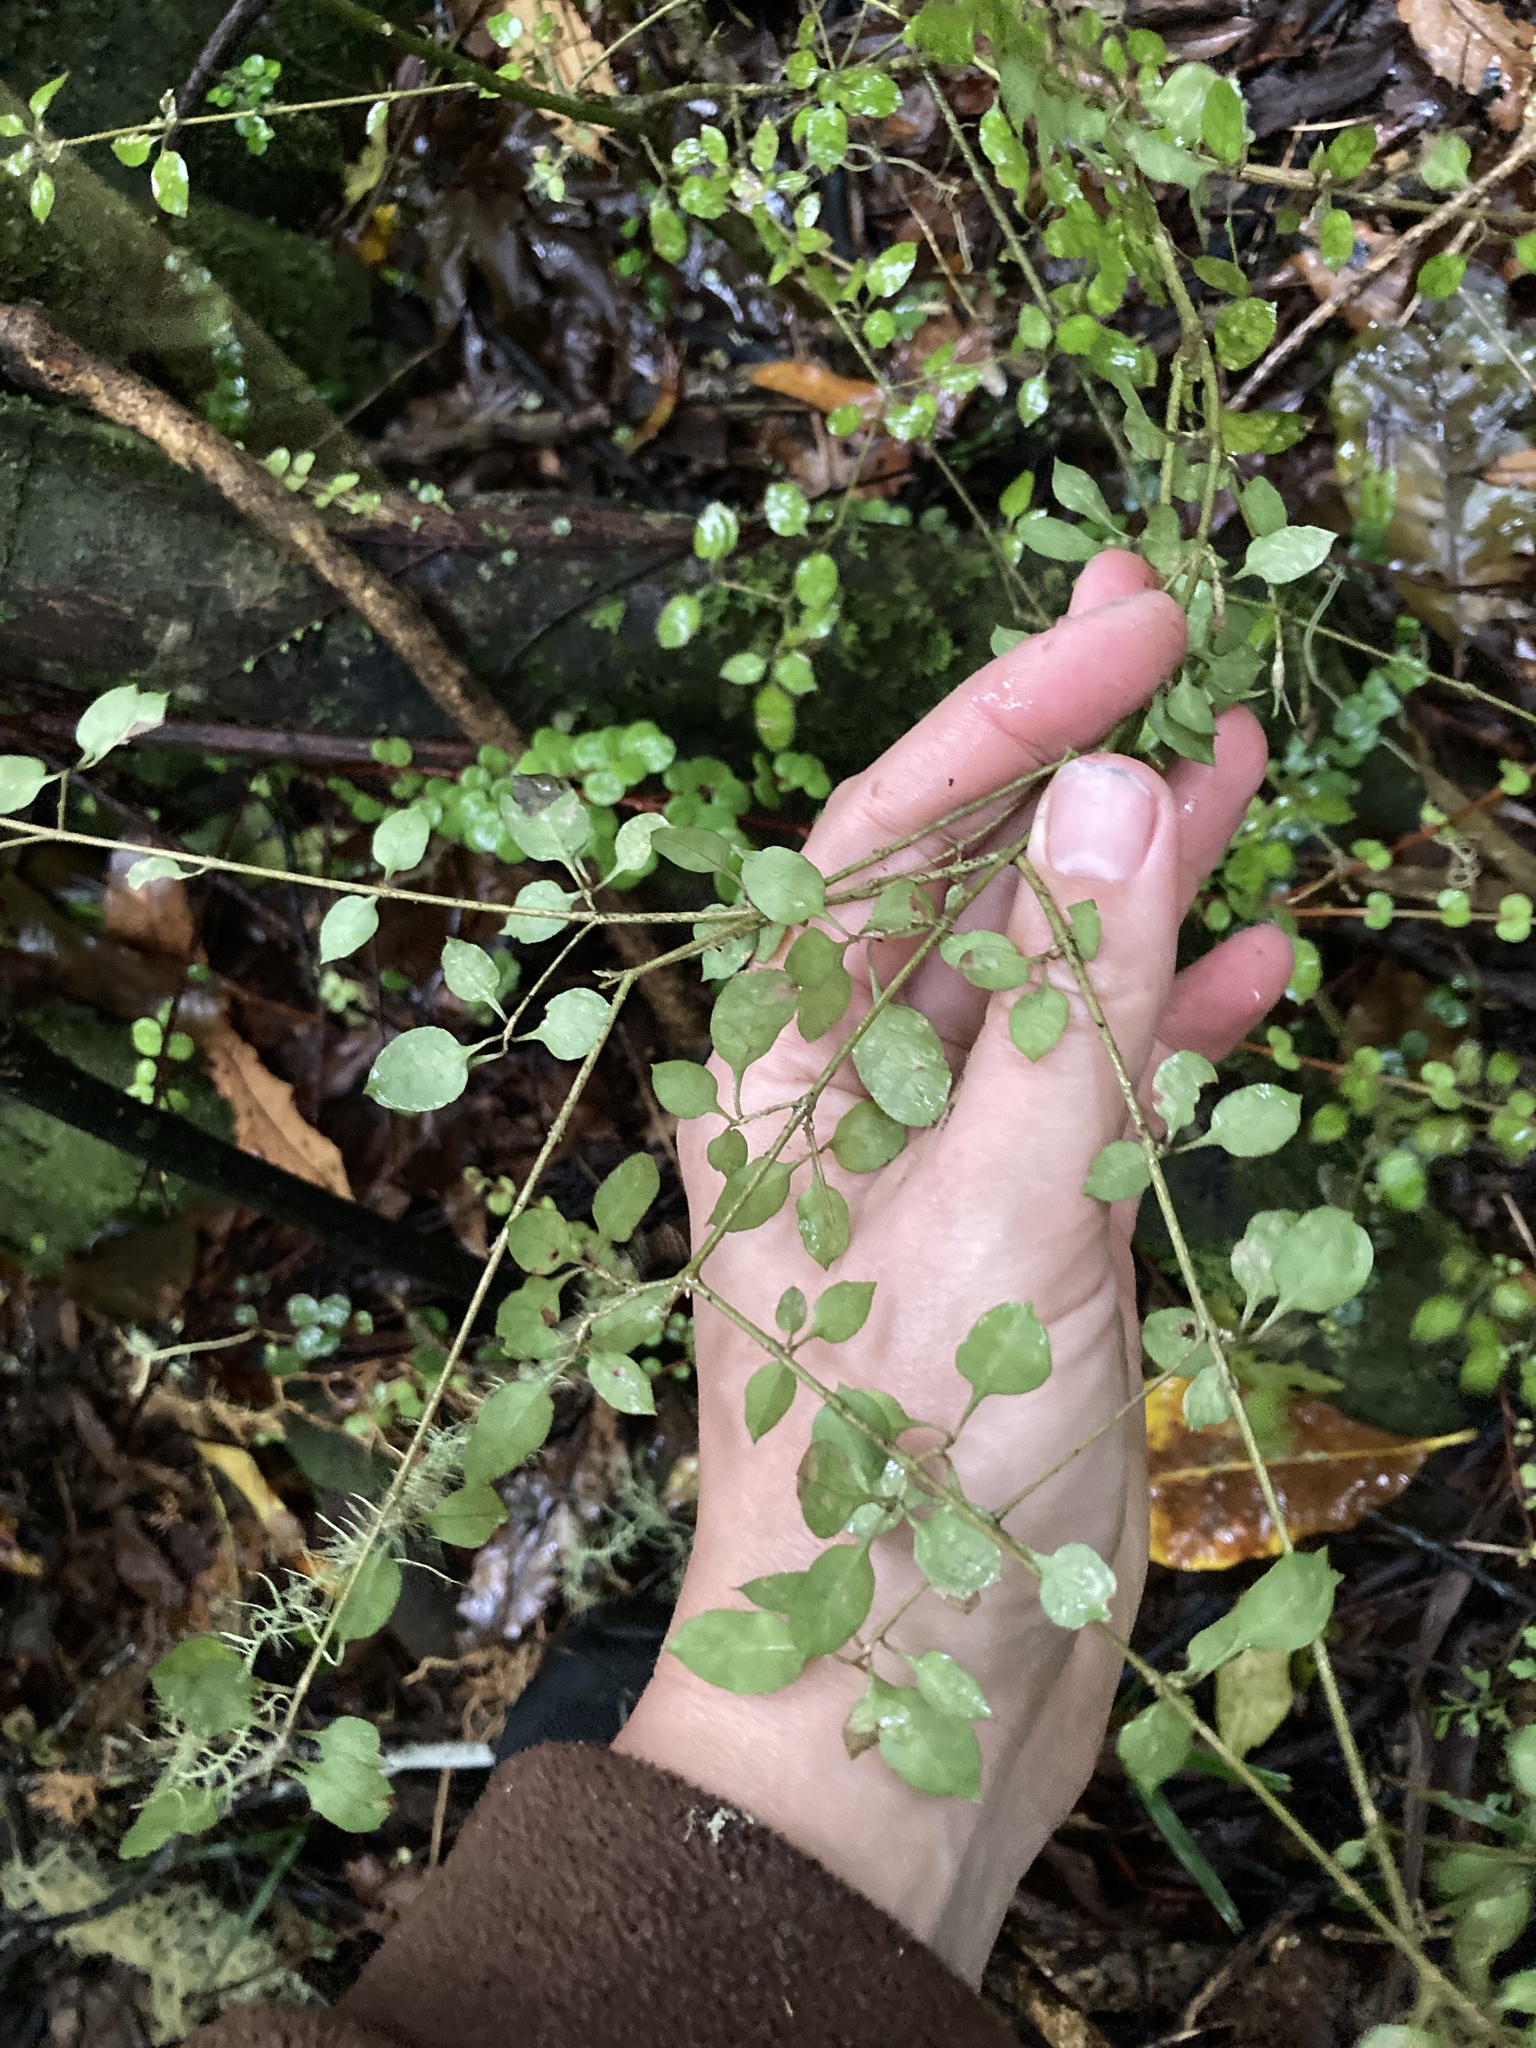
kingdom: Plantae
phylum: Tracheophyta
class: Magnoliopsida
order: Gentianales
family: Rubiaceae
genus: Coprosma
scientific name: Coprosma areolata
